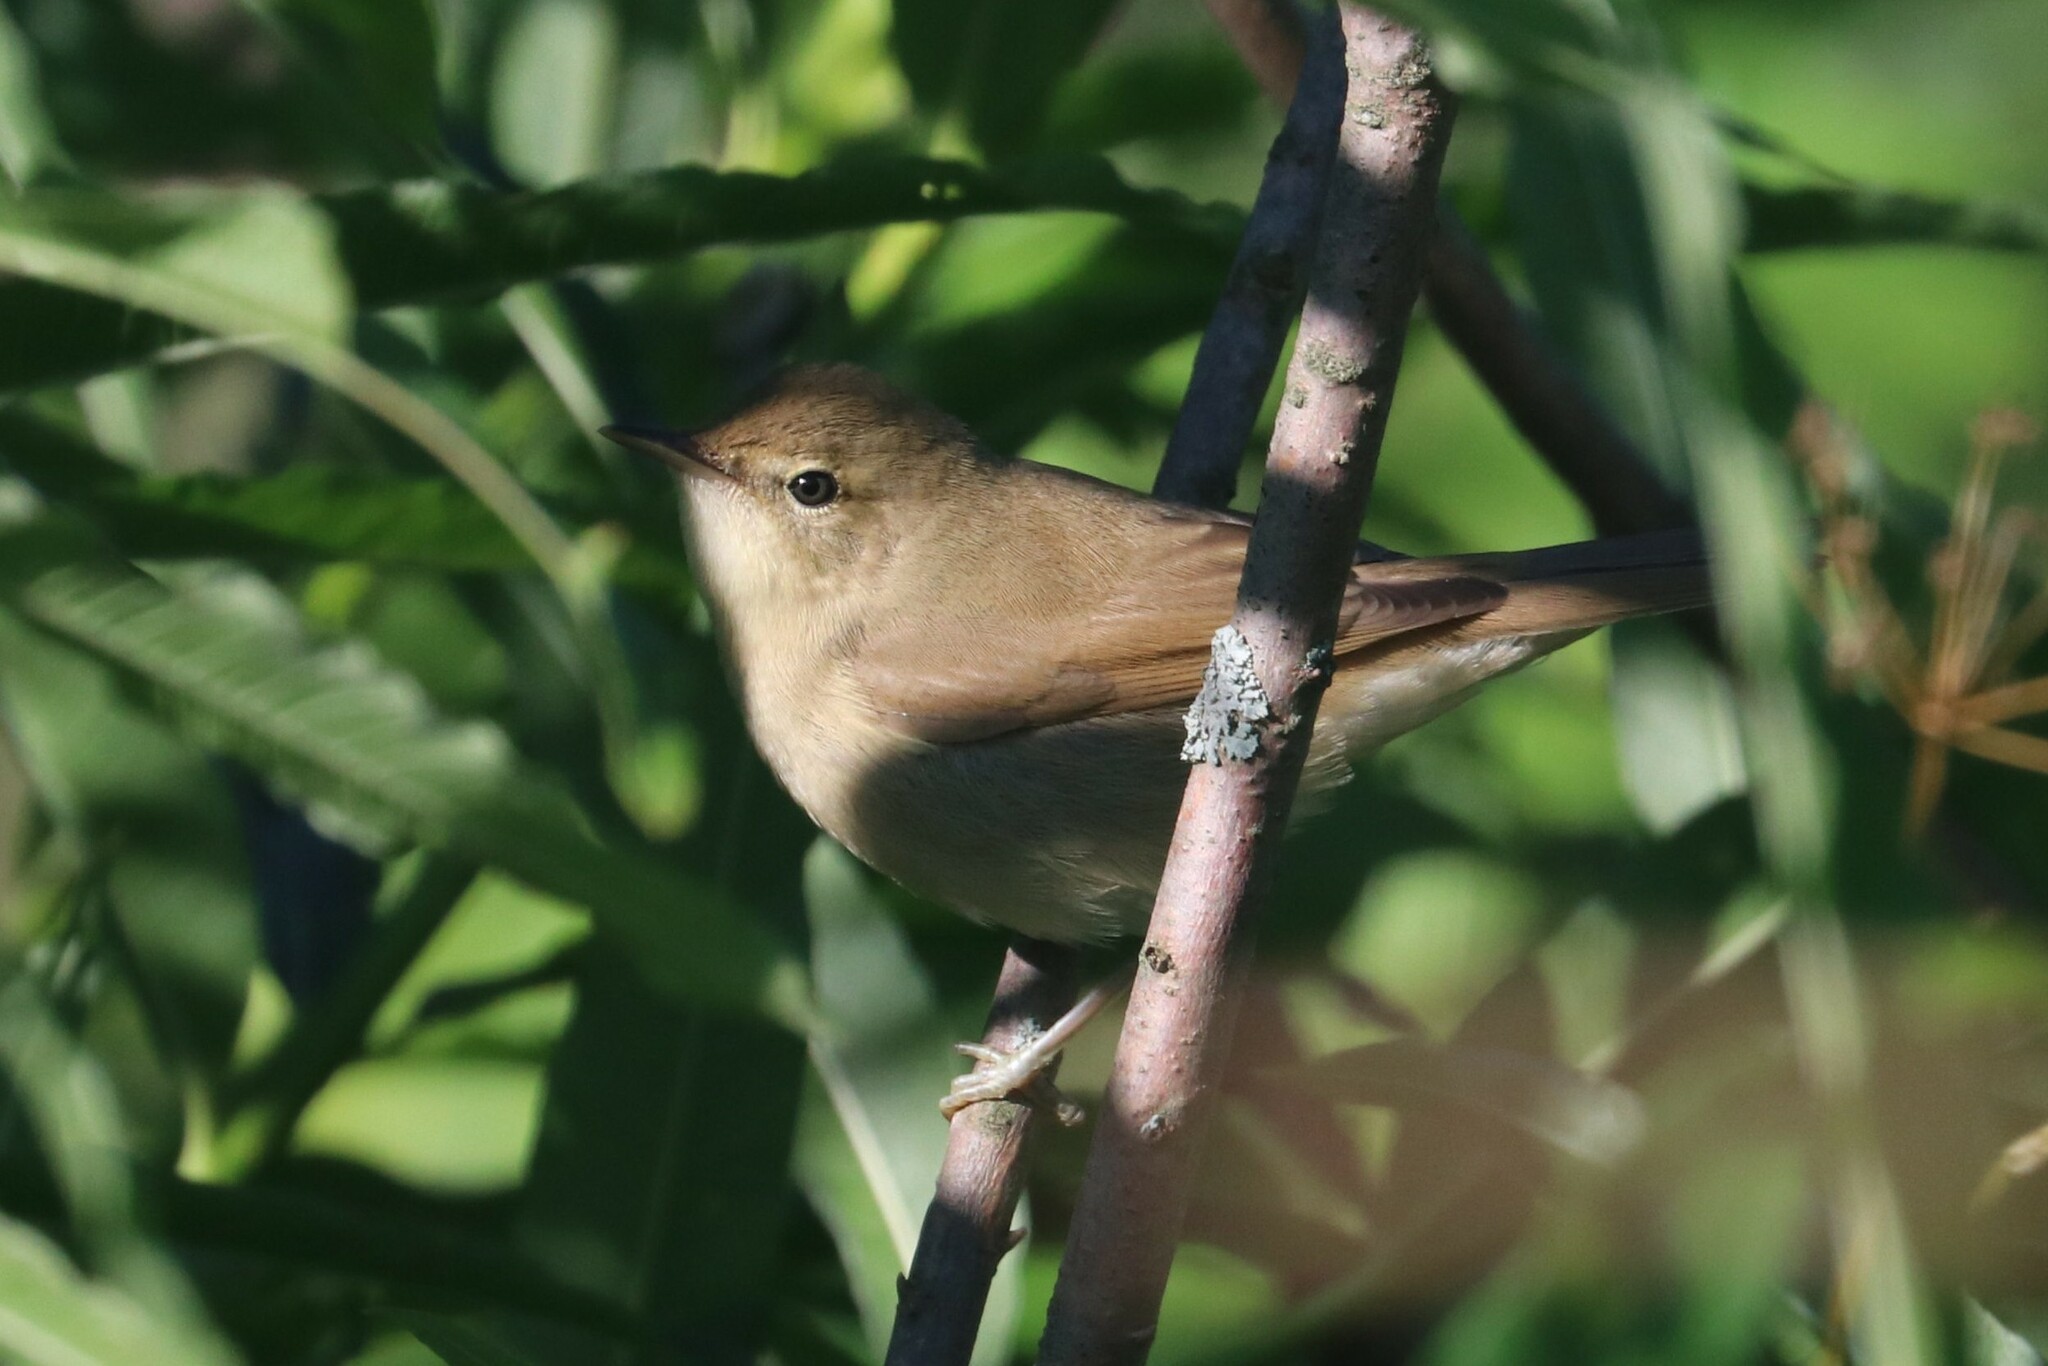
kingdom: Animalia
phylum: Chordata
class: Aves
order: Passeriformes
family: Acrocephalidae
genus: Iduna
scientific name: Iduna caligata
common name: Booted warbler
